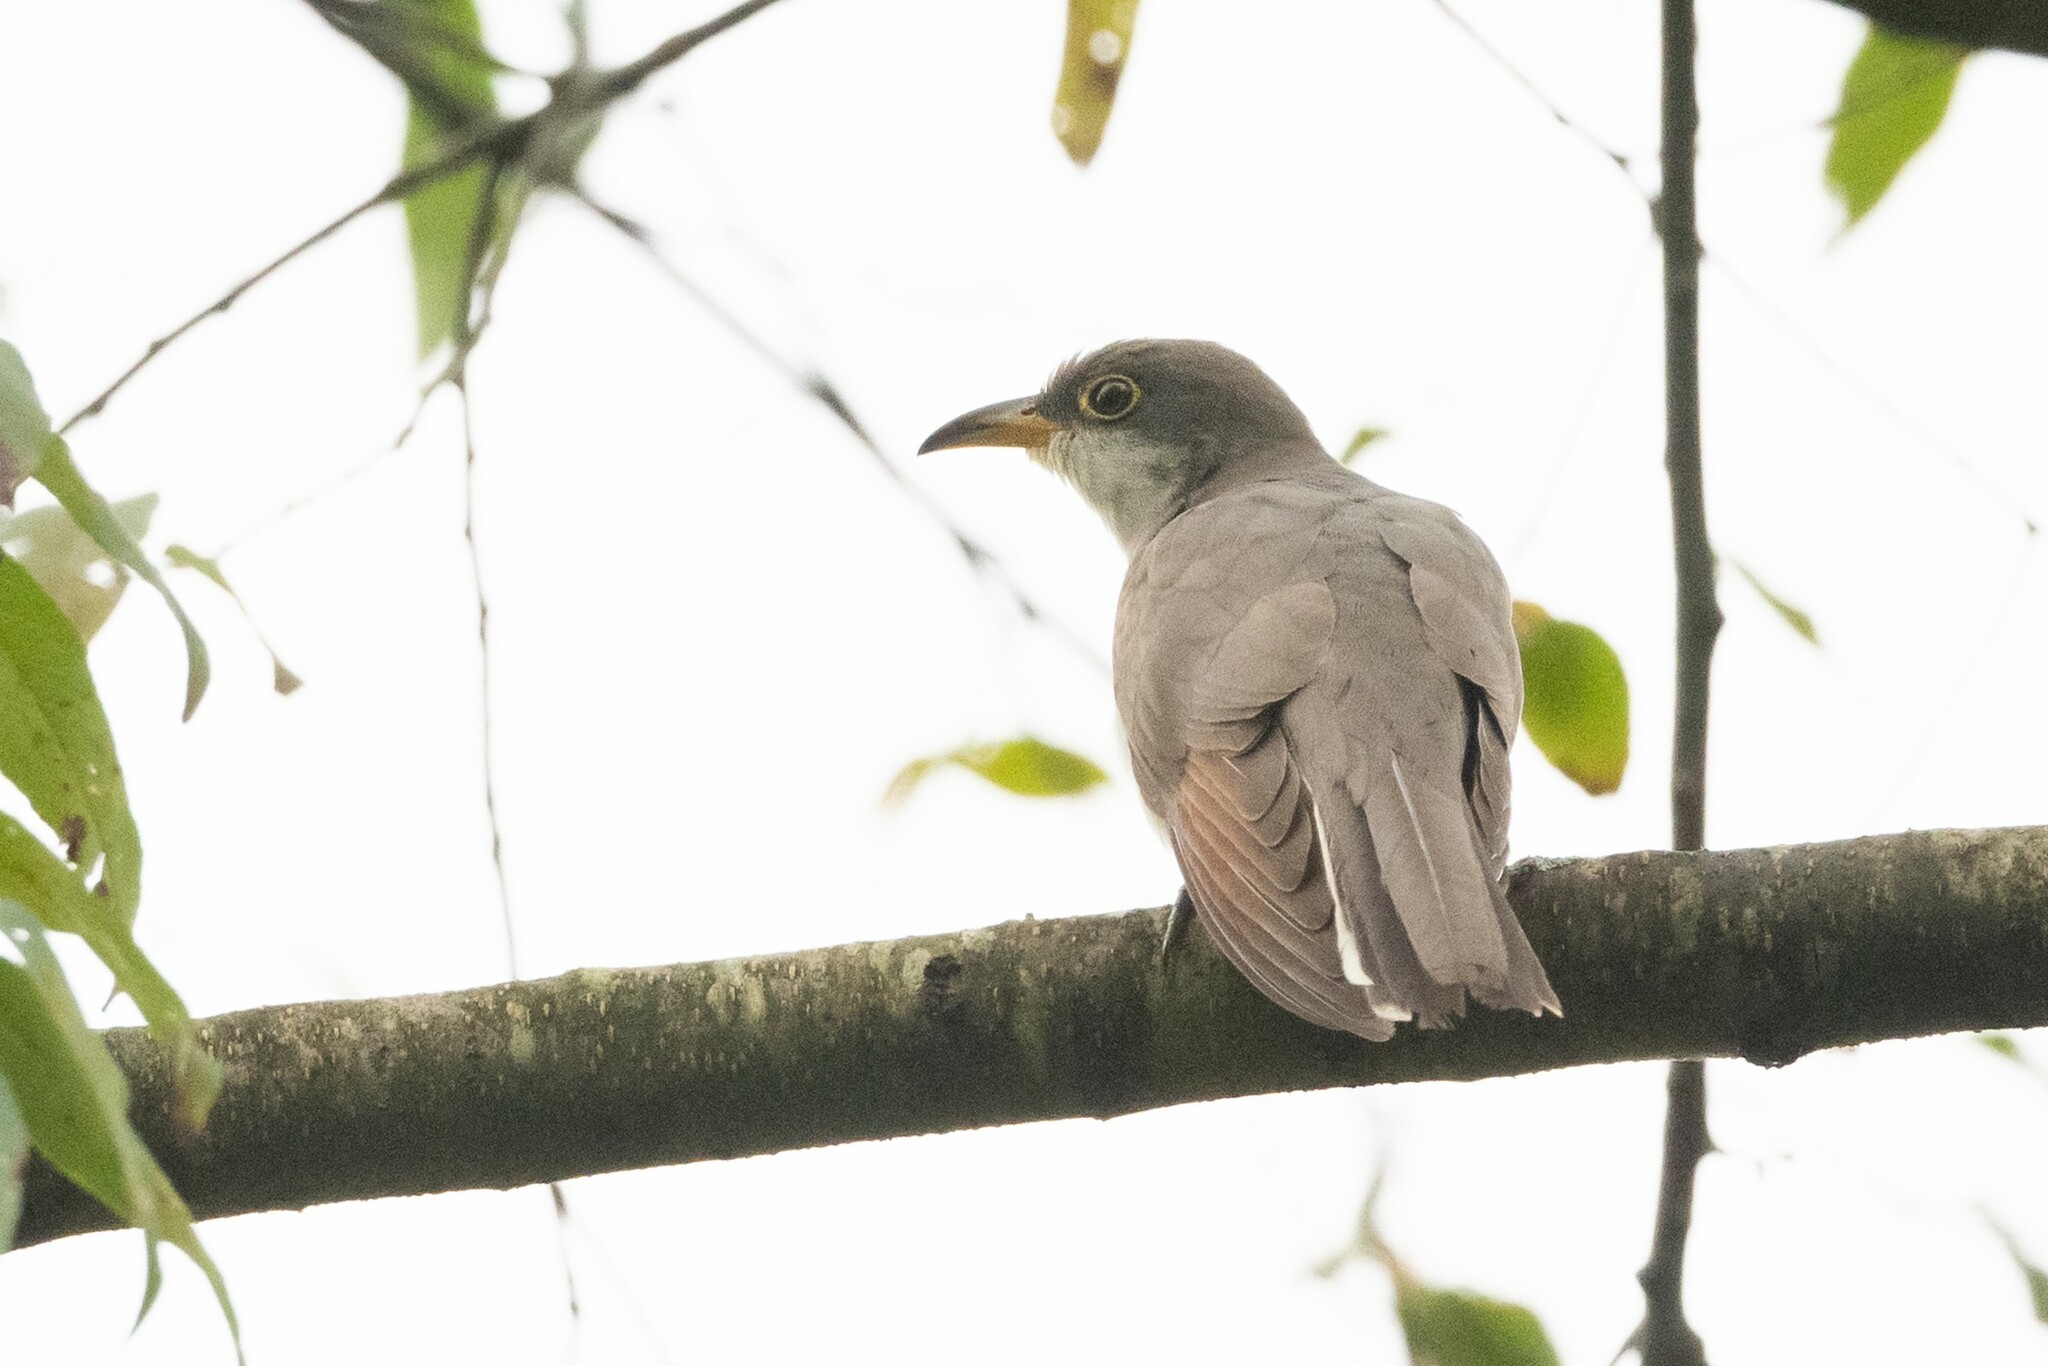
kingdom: Animalia
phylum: Chordata
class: Aves
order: Cuculiformes
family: Cuculidae
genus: Coccyzus
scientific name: Coccyzus americanus
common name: Yellow-billed cuckoo
